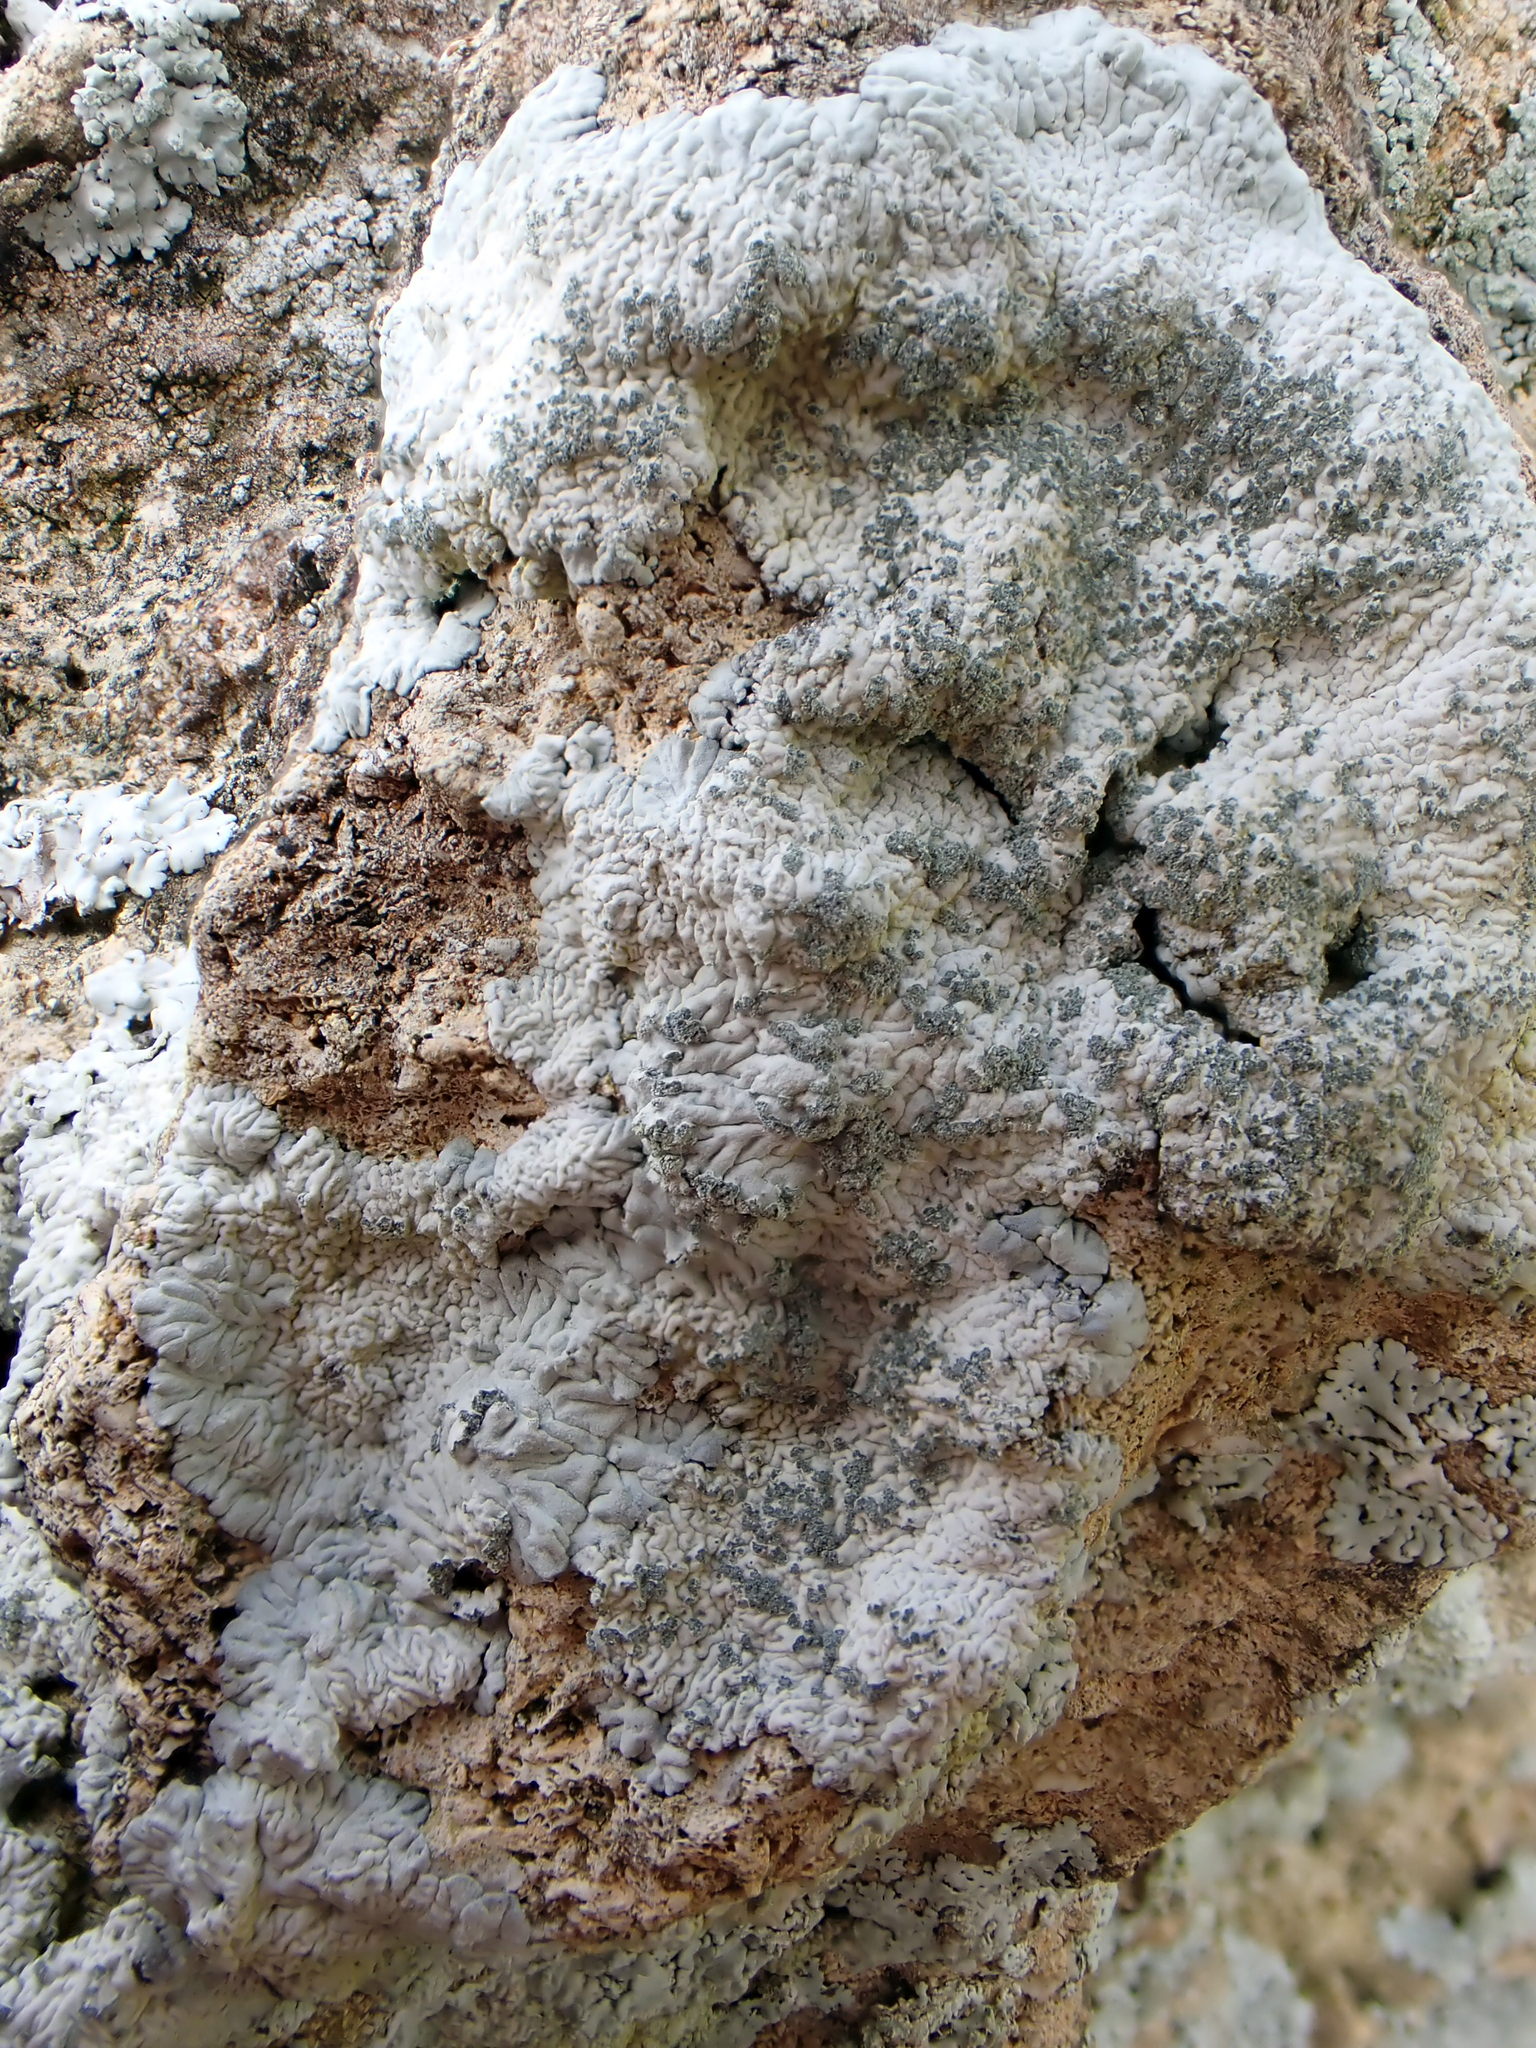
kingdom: Fungi
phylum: Ascomycota
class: Lecanoromycetes
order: Caliciales
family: Caliciaceae
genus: Diploicia
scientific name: Diploicia canescens
